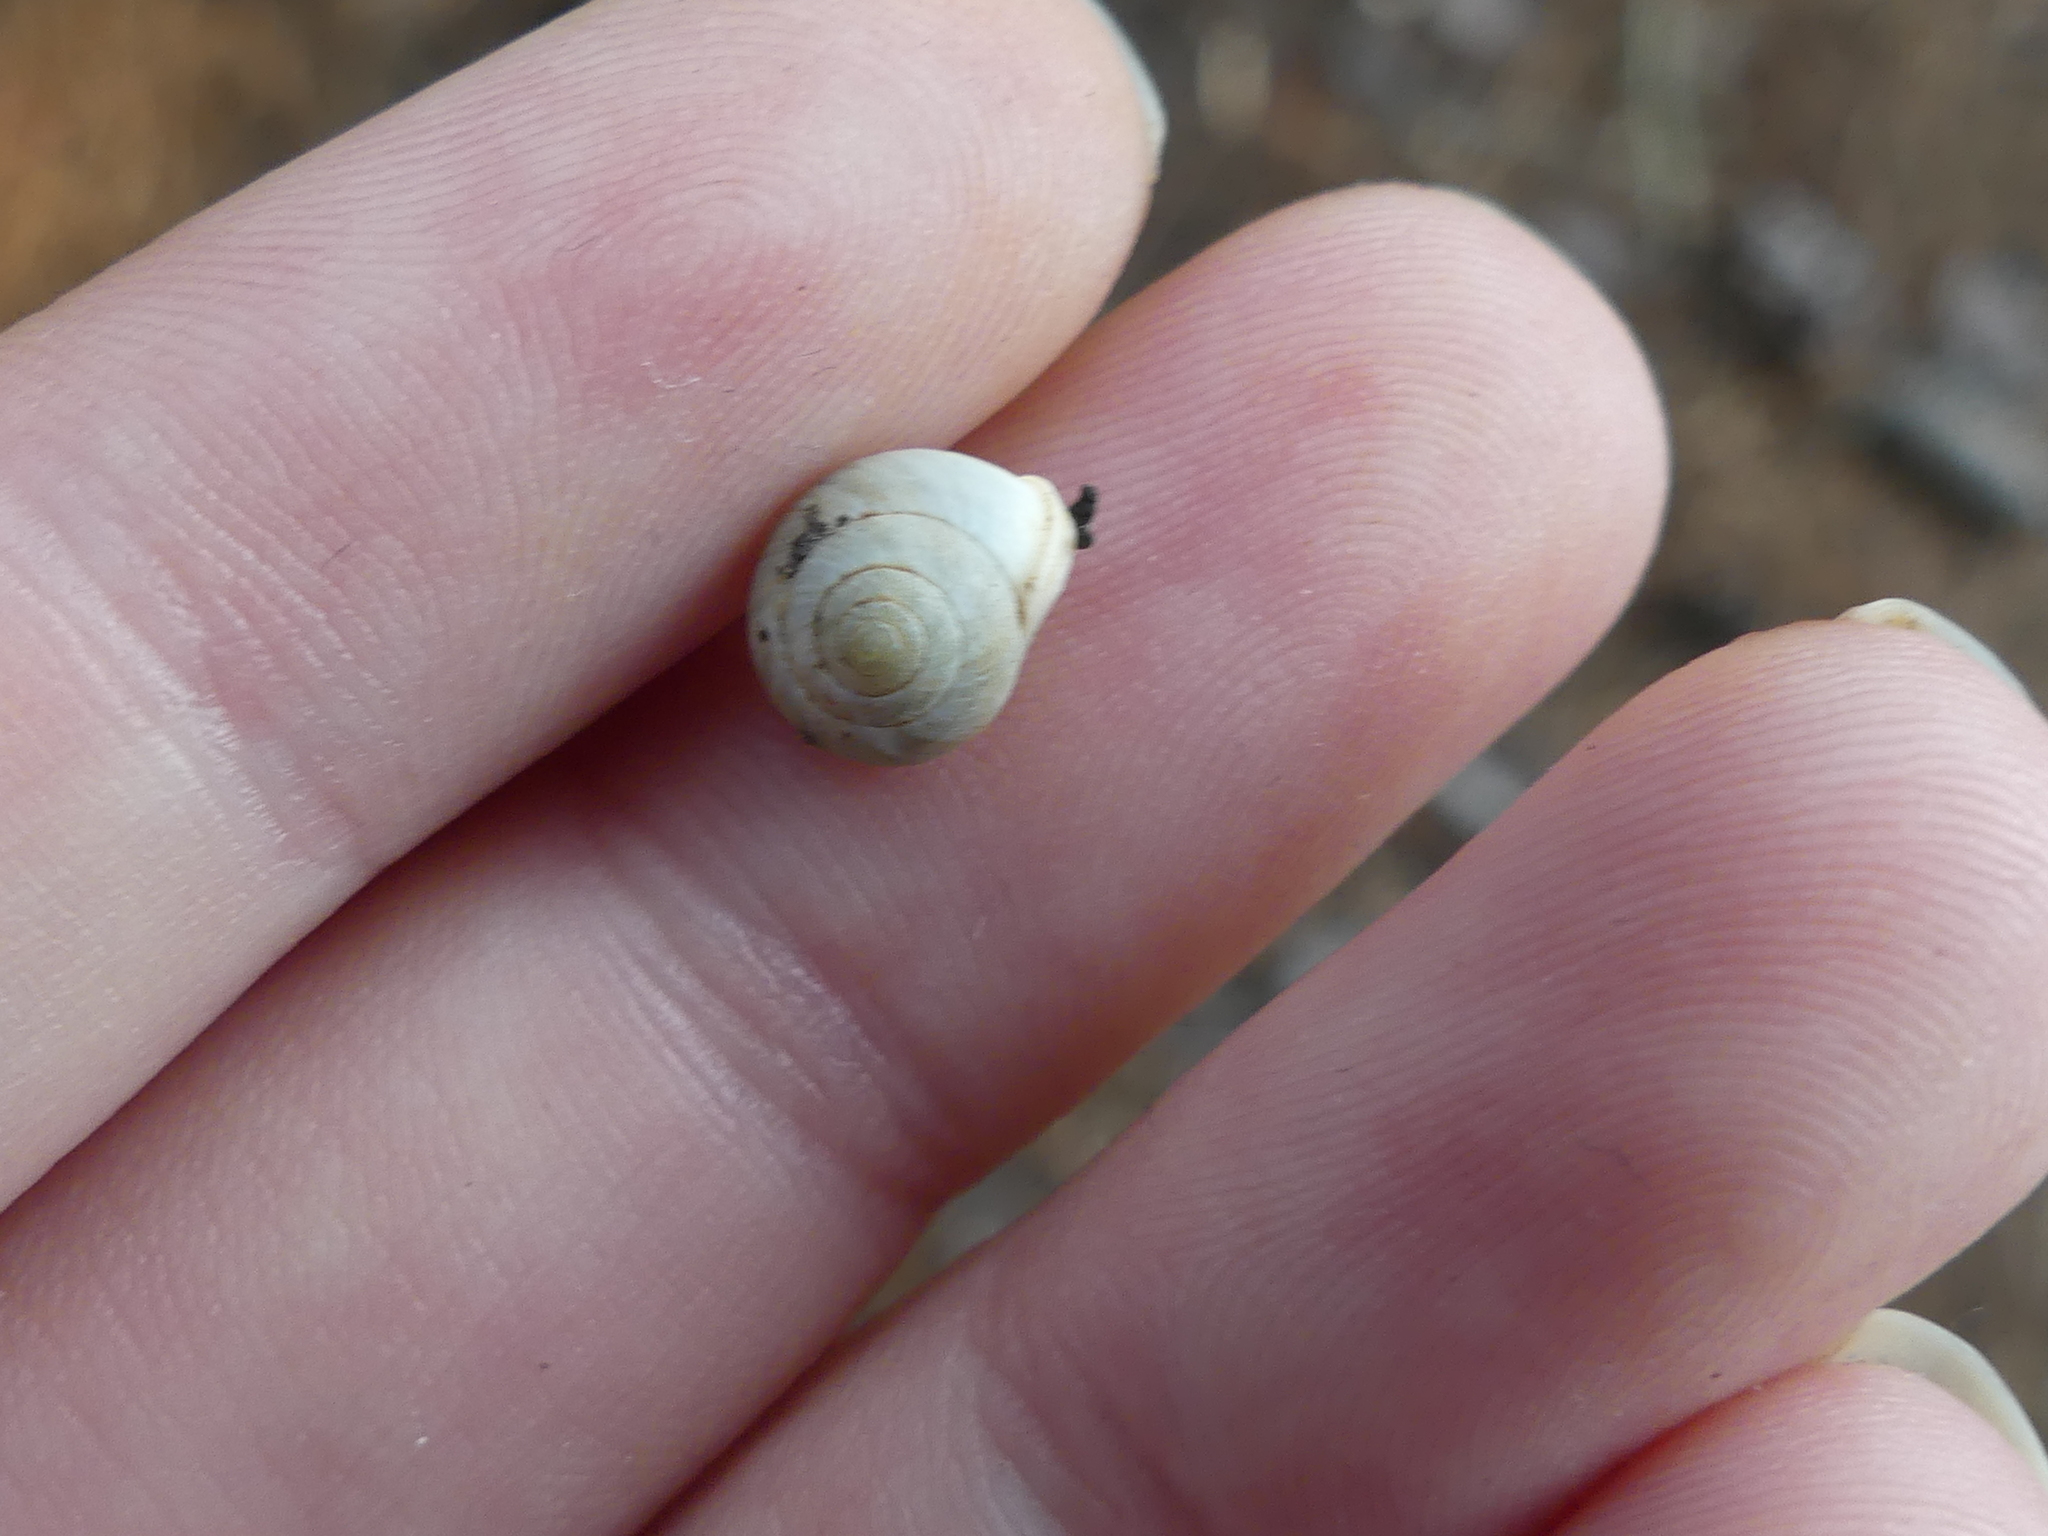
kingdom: Animalia
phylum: Mollusca
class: Gastropoda
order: Cycloneritida
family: Helicinidae
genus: Helicina
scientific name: Helicina orbiculata
